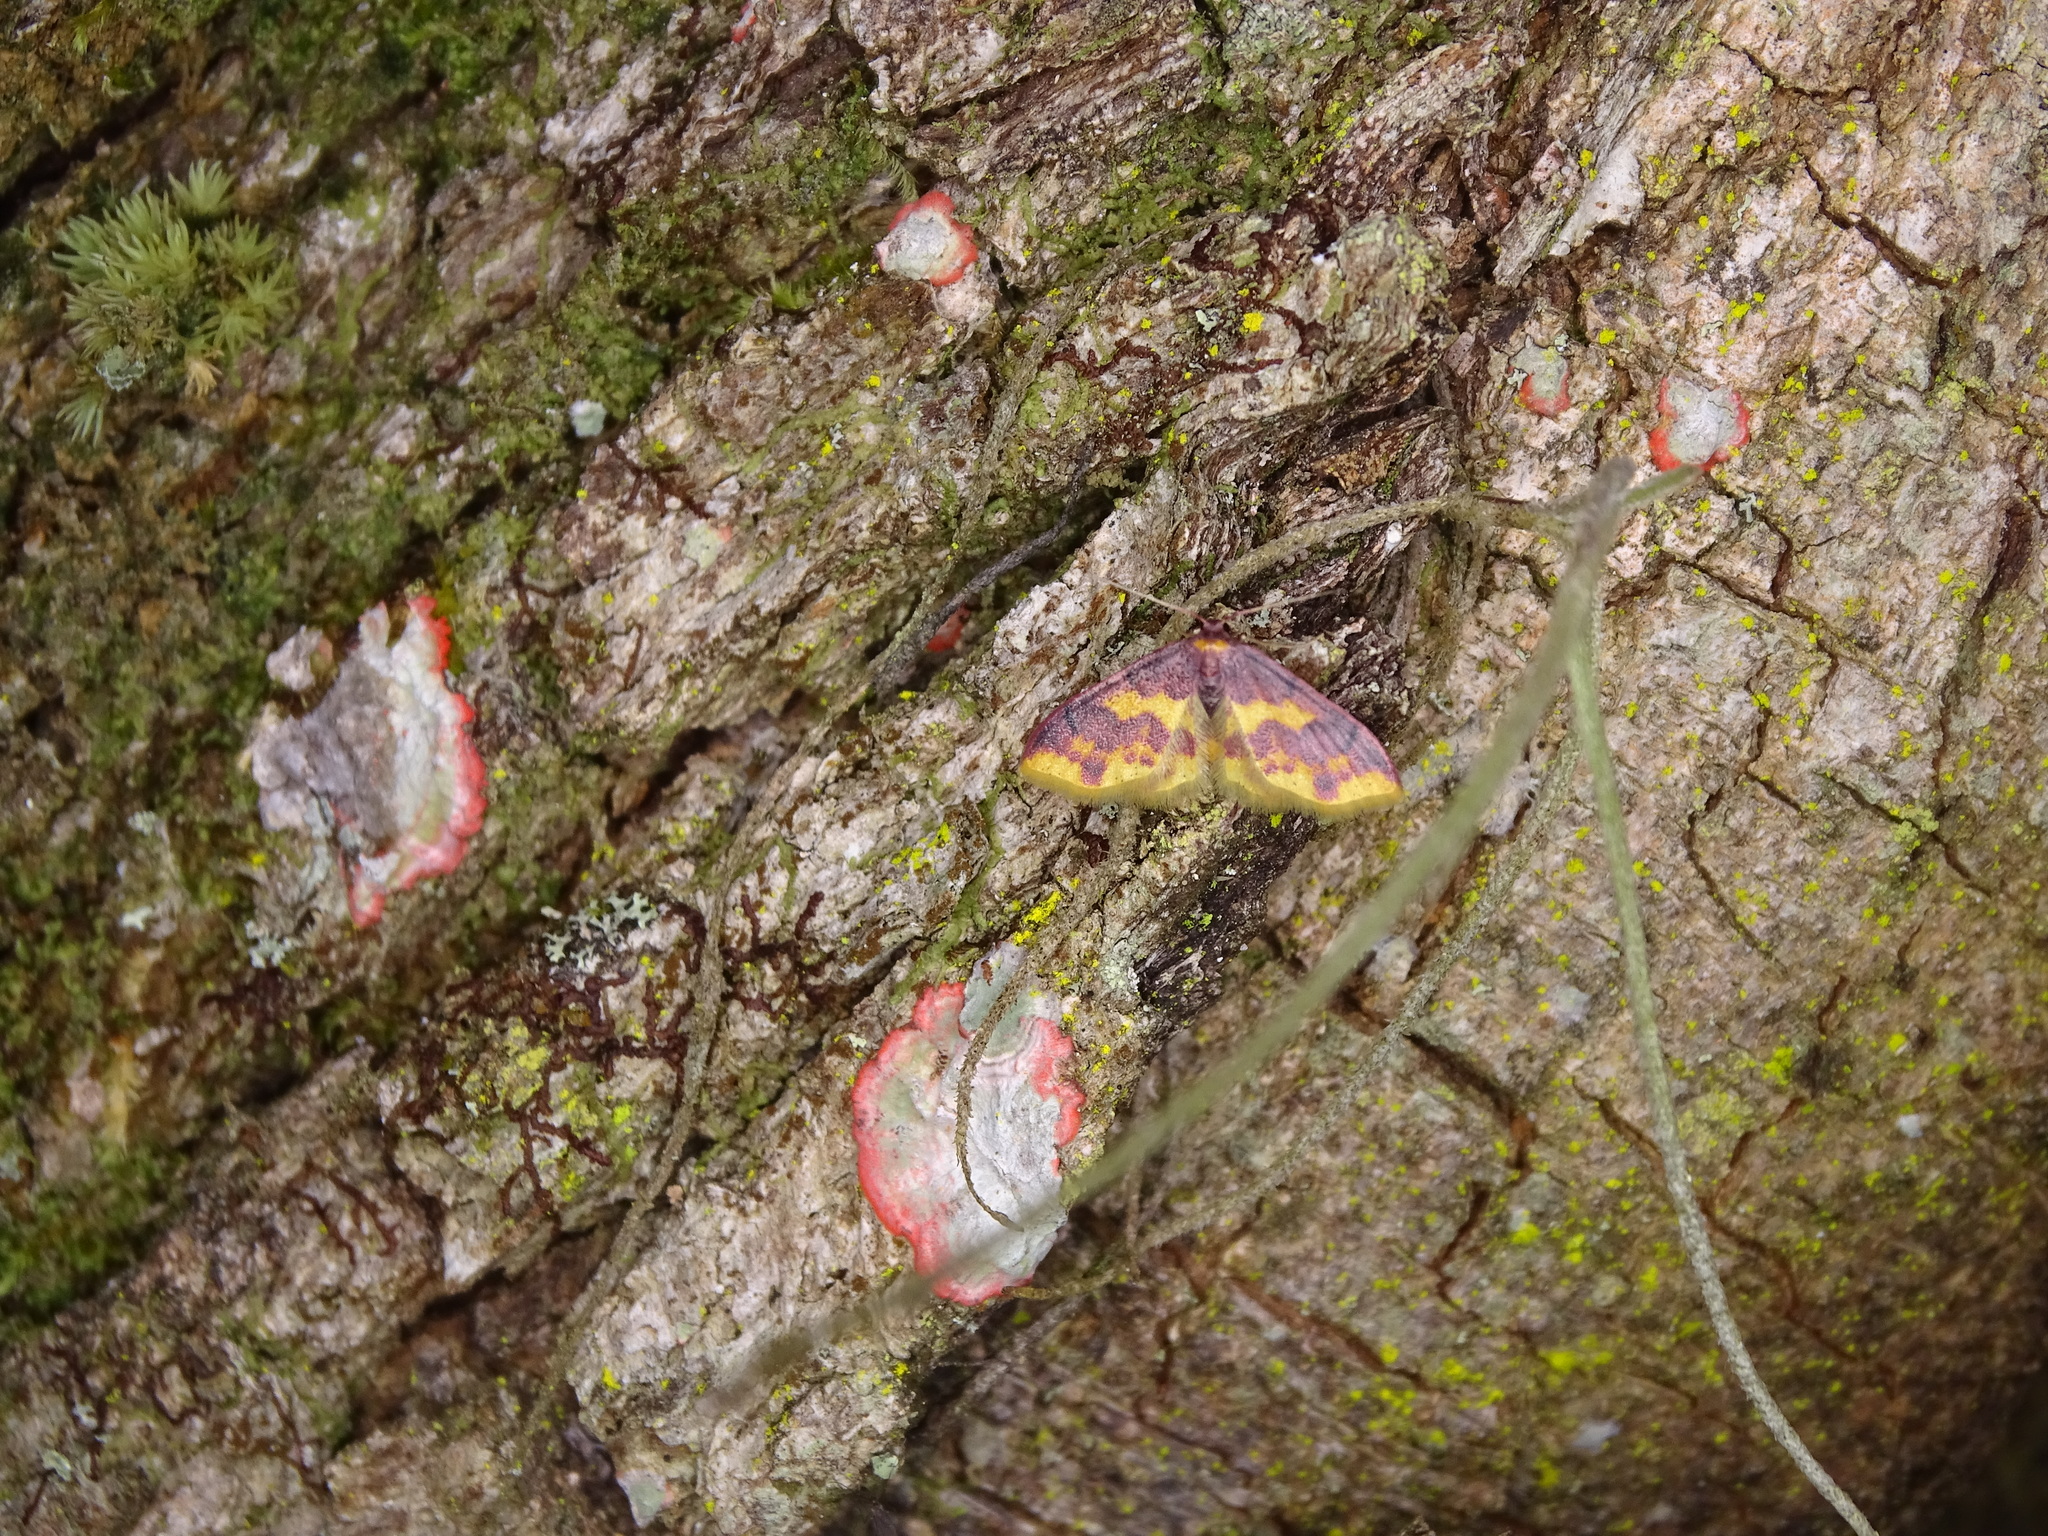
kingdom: Animalia
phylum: Arthropoda
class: Insecta
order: Lepidoptera
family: Geometridae
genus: Lophosis
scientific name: Lophosis labeculata
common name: Stained lophosis moth
